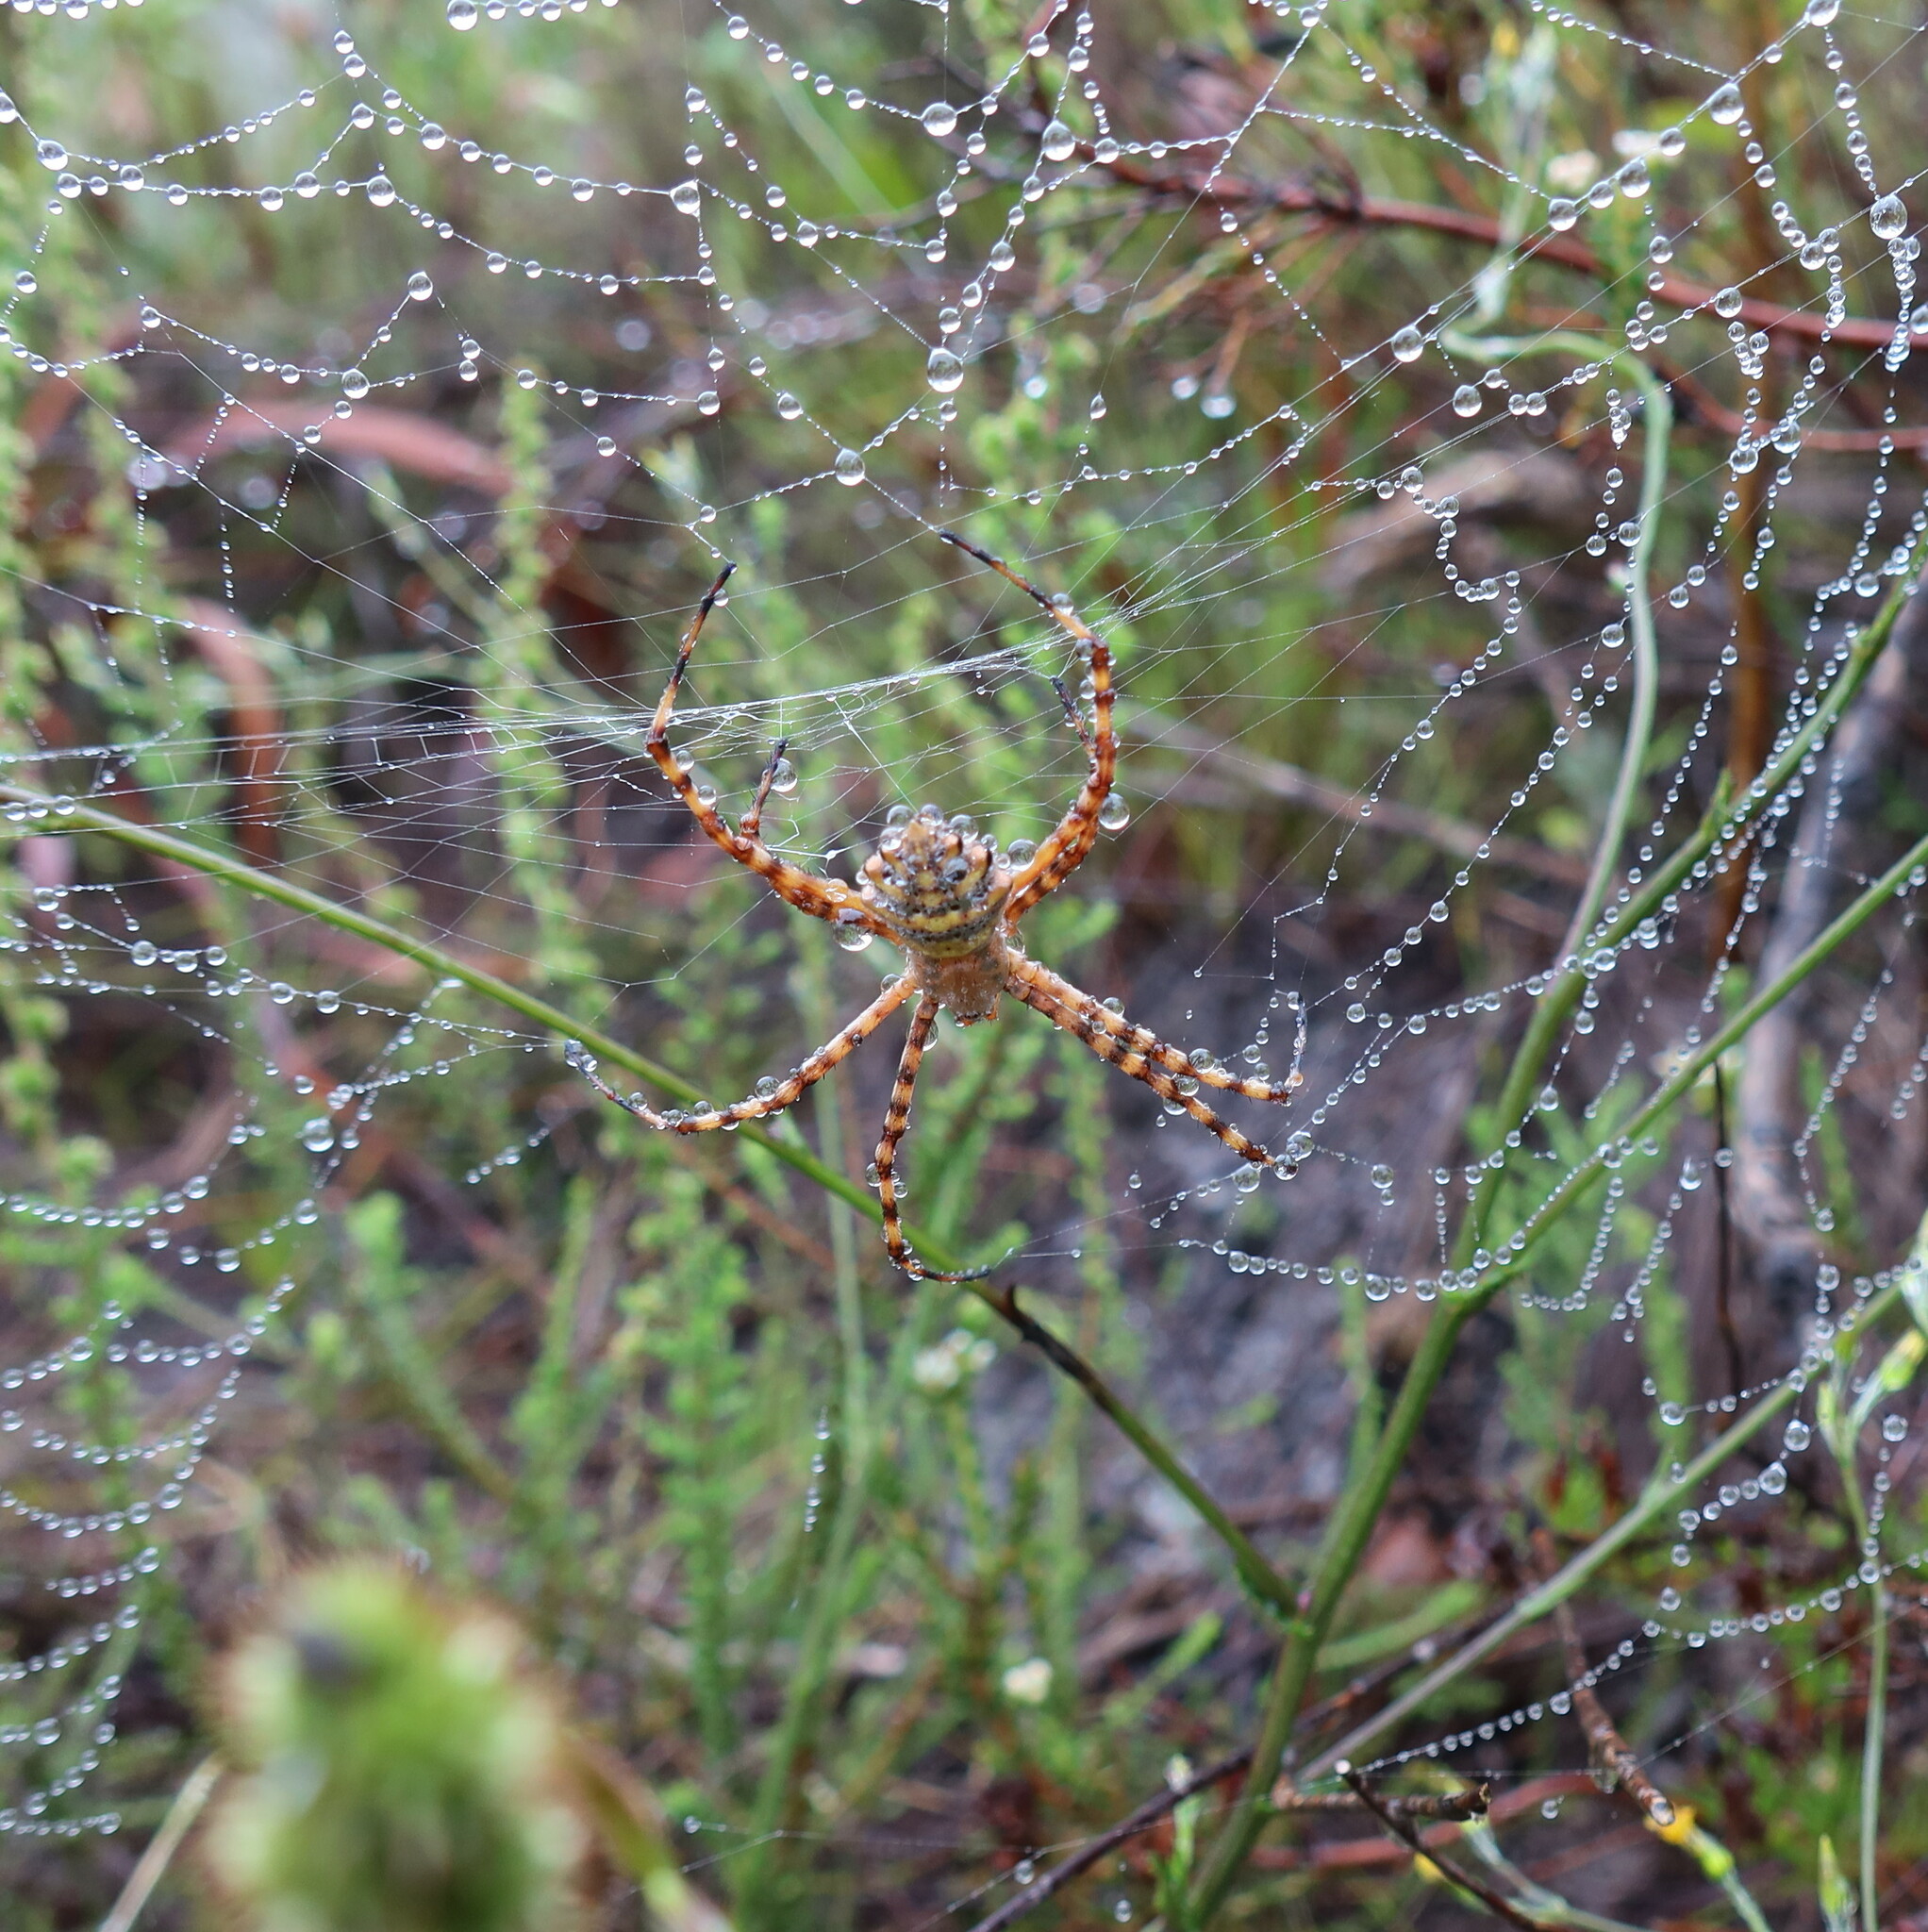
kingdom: Animalia
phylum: Arthropoda
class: Arachnida
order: Araneae
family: Araneidae
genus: Argiope
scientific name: Argiope australis
